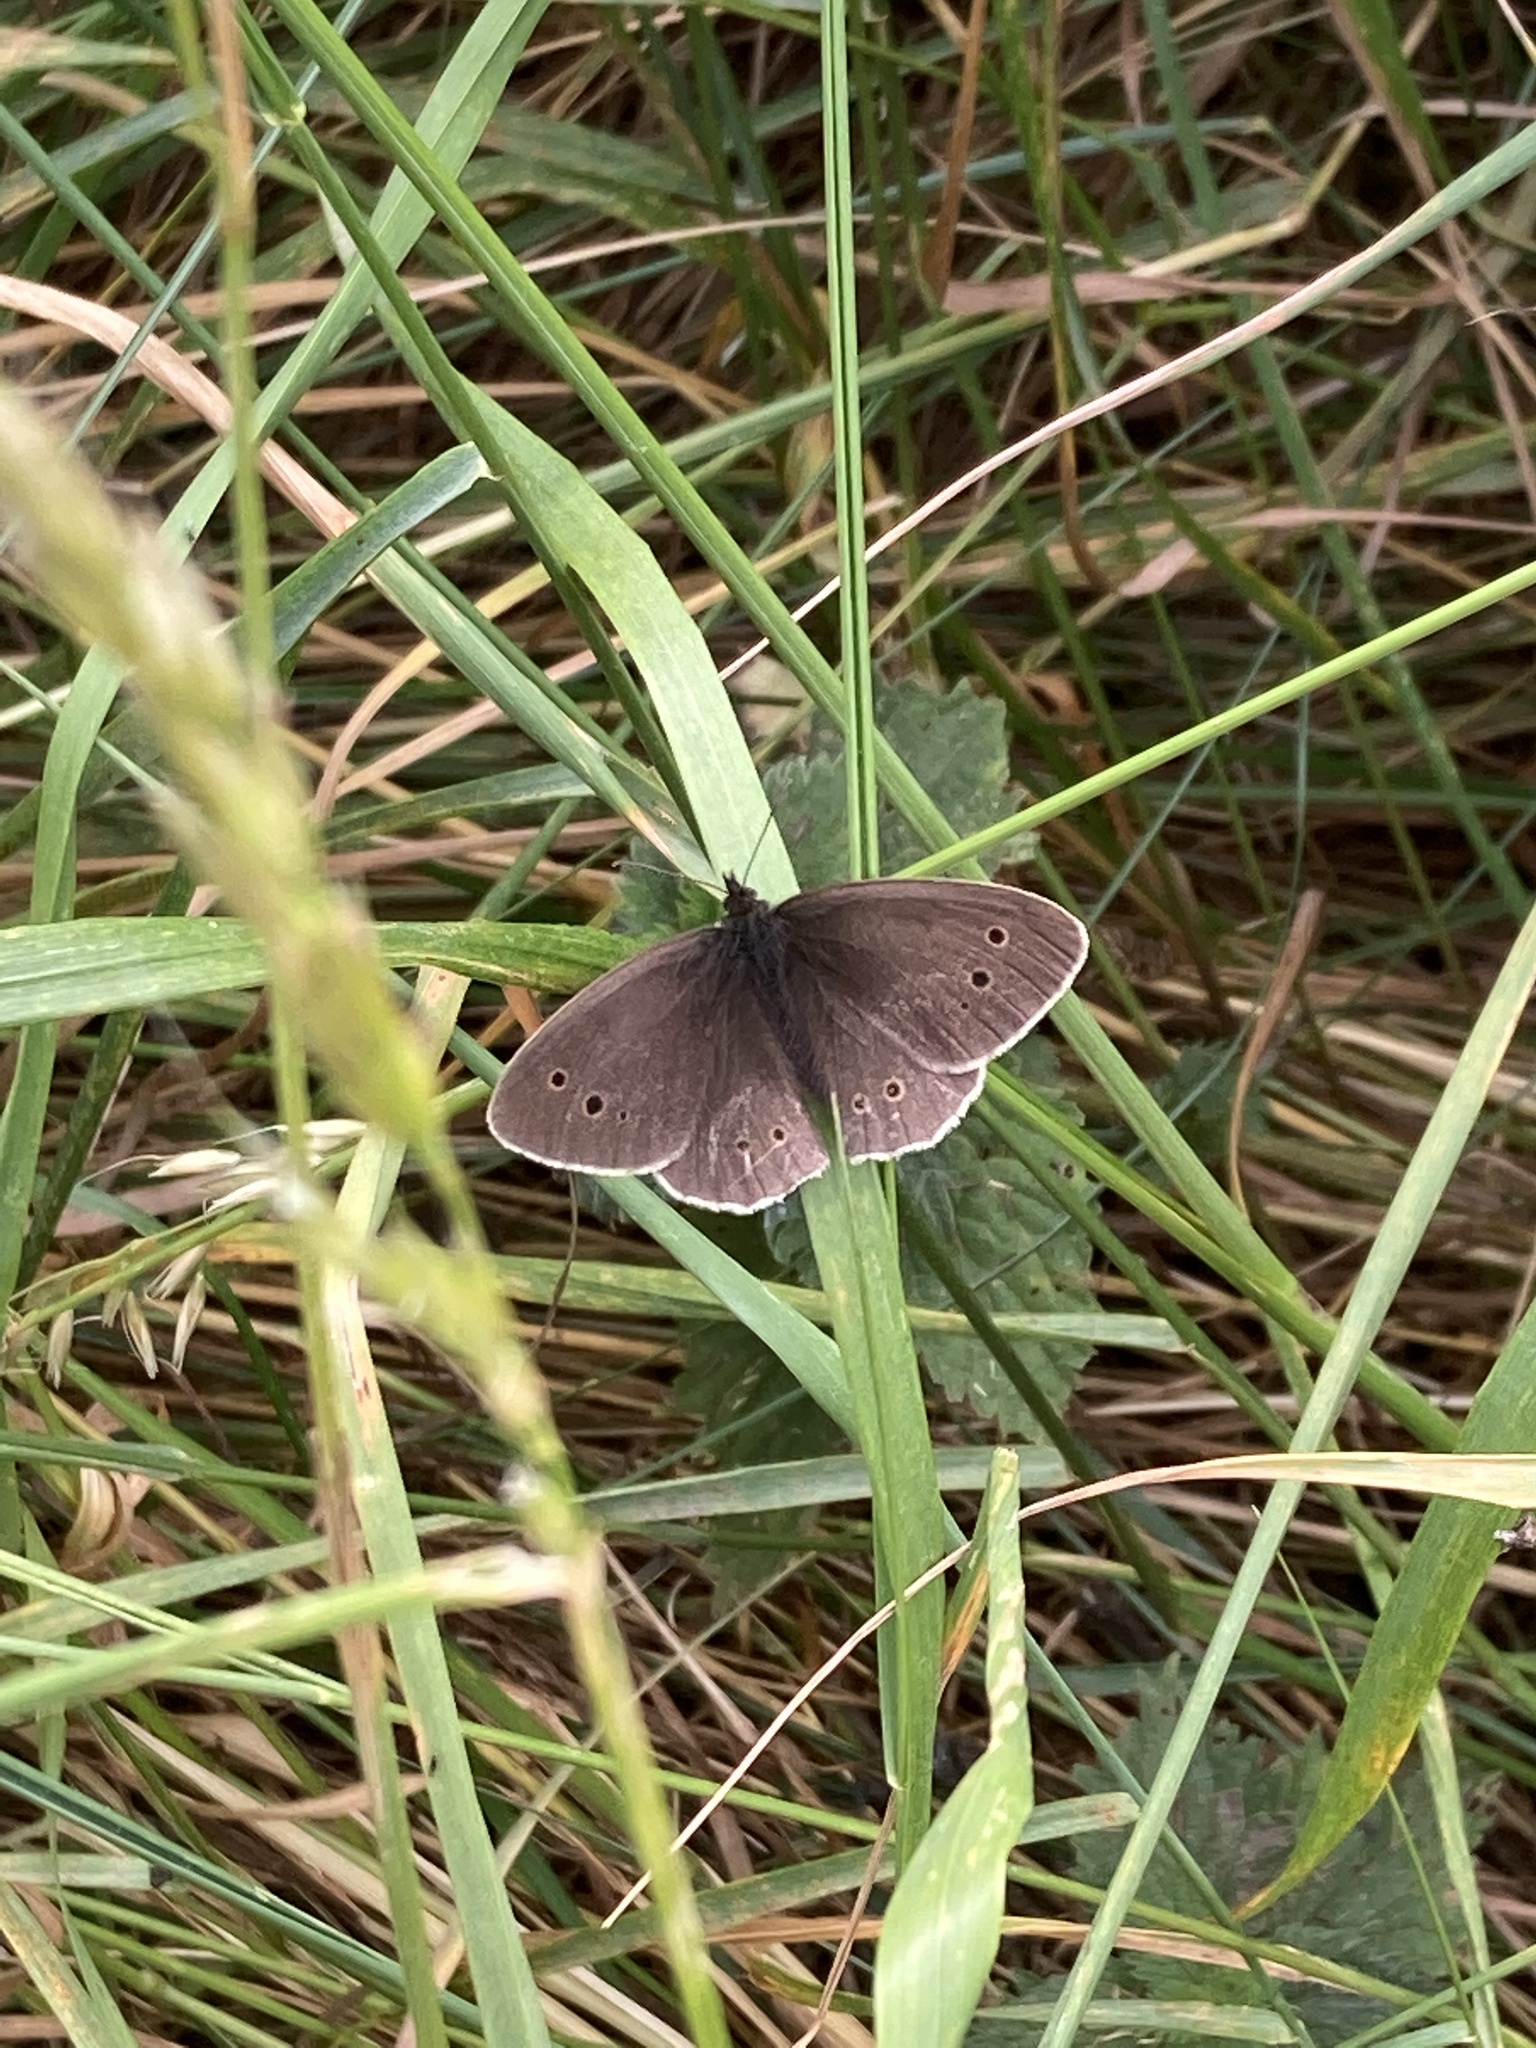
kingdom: Animalia
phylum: Arthropoda
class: Insecta
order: Lepidoptera
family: Nymphalidae
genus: Aphantopus
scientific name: Aphantopus hyperantus
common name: Ringlet
